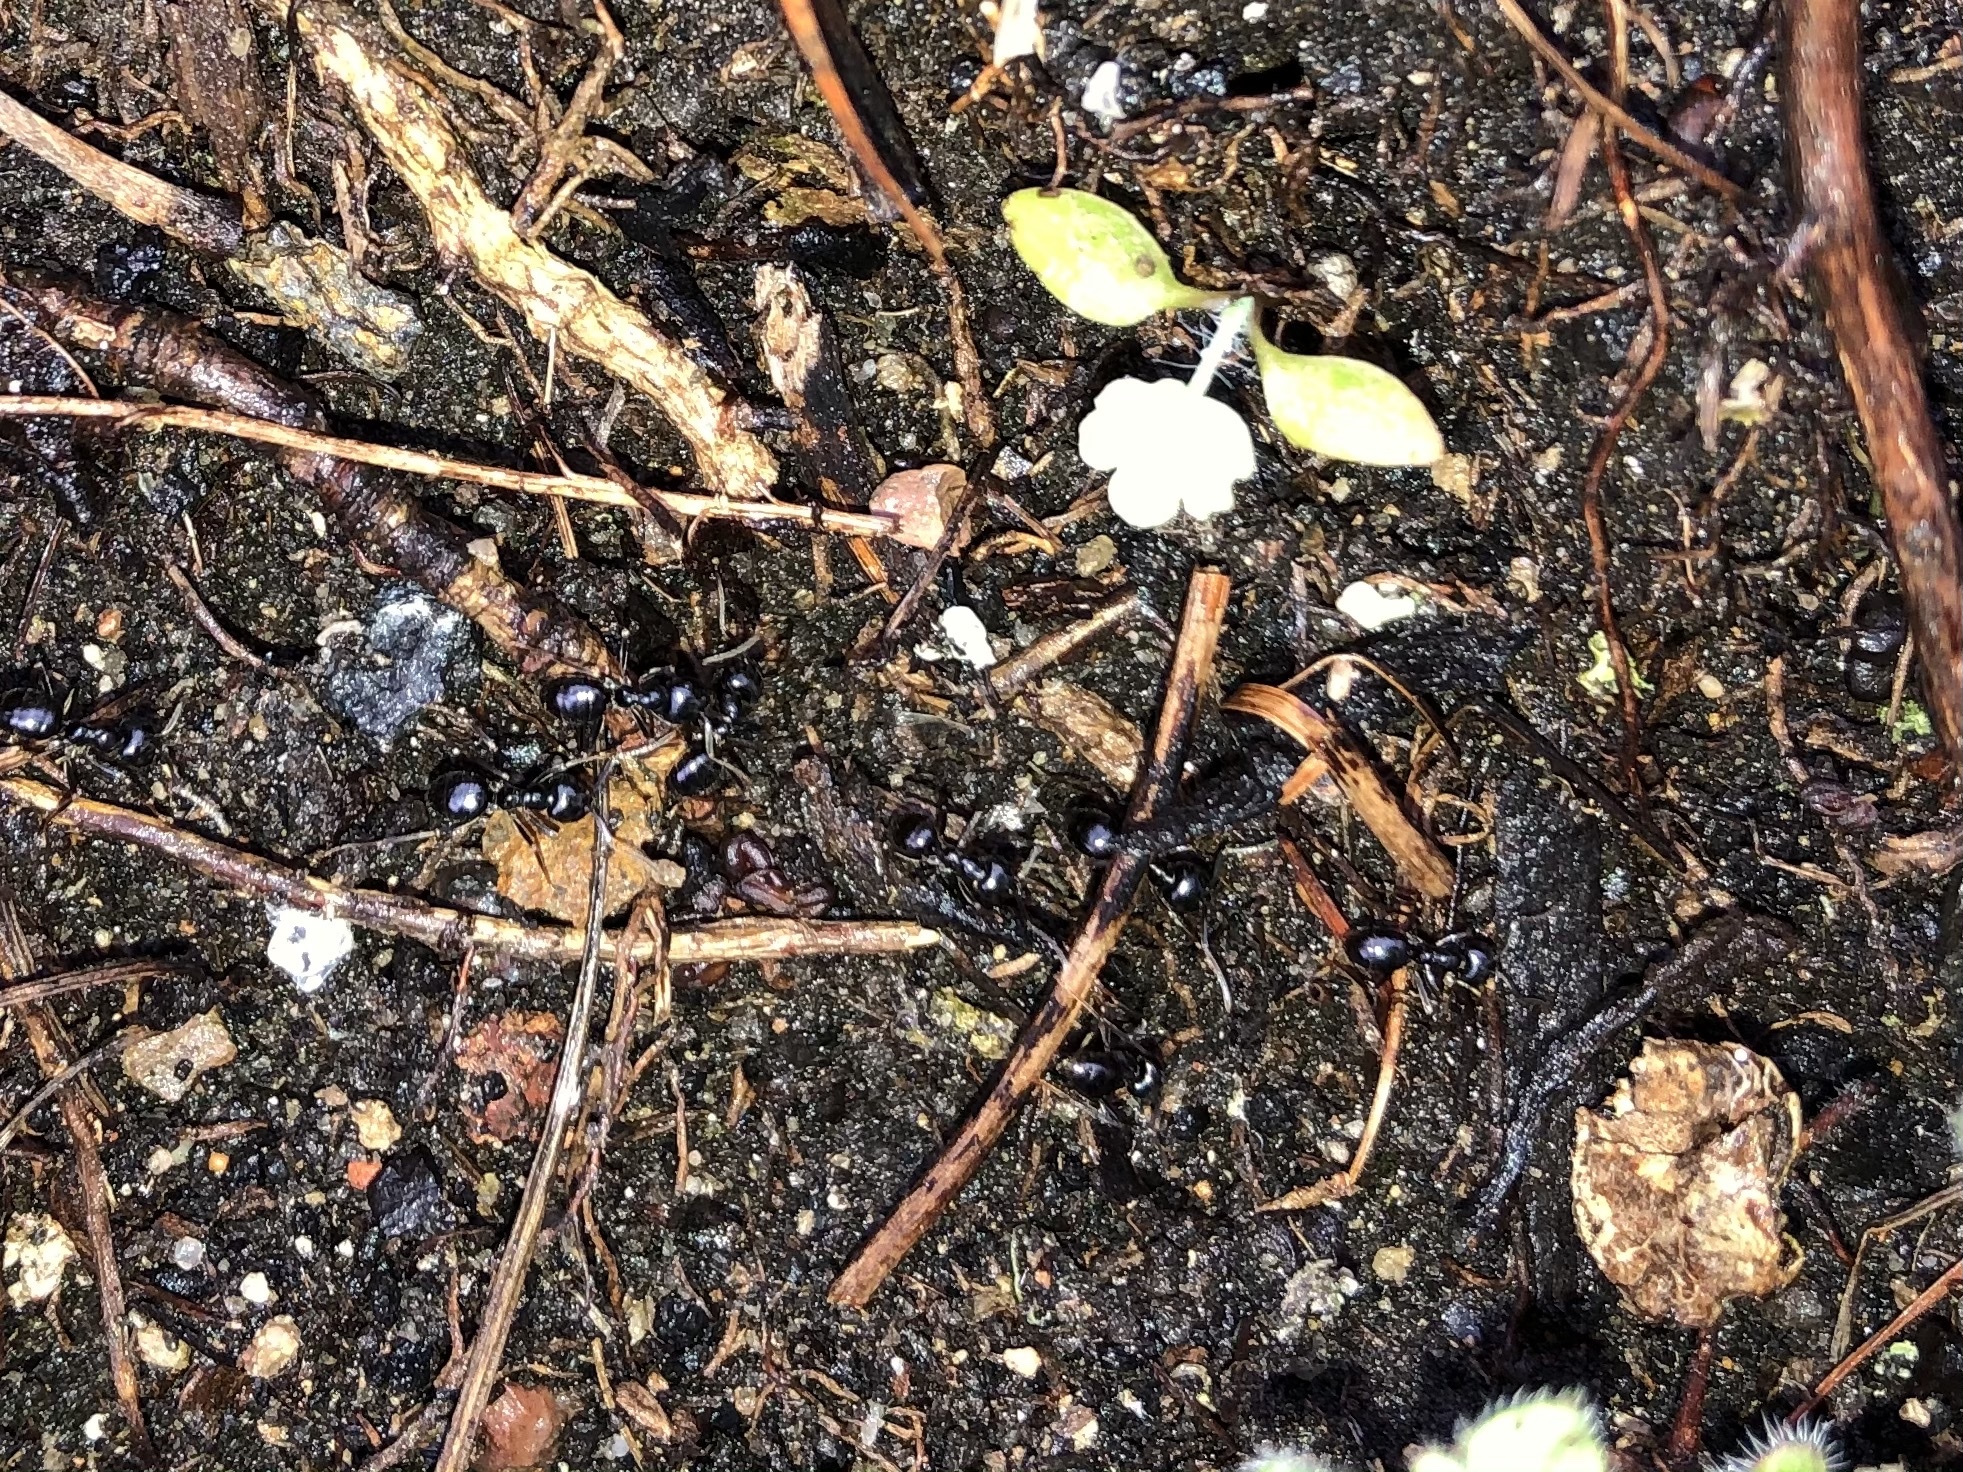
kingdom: Animalia
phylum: Arthropoda
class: Insecta
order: Hymenoptera
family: Formicidae
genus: Lasius
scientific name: Lasius fuliginosus
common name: Jet ant
